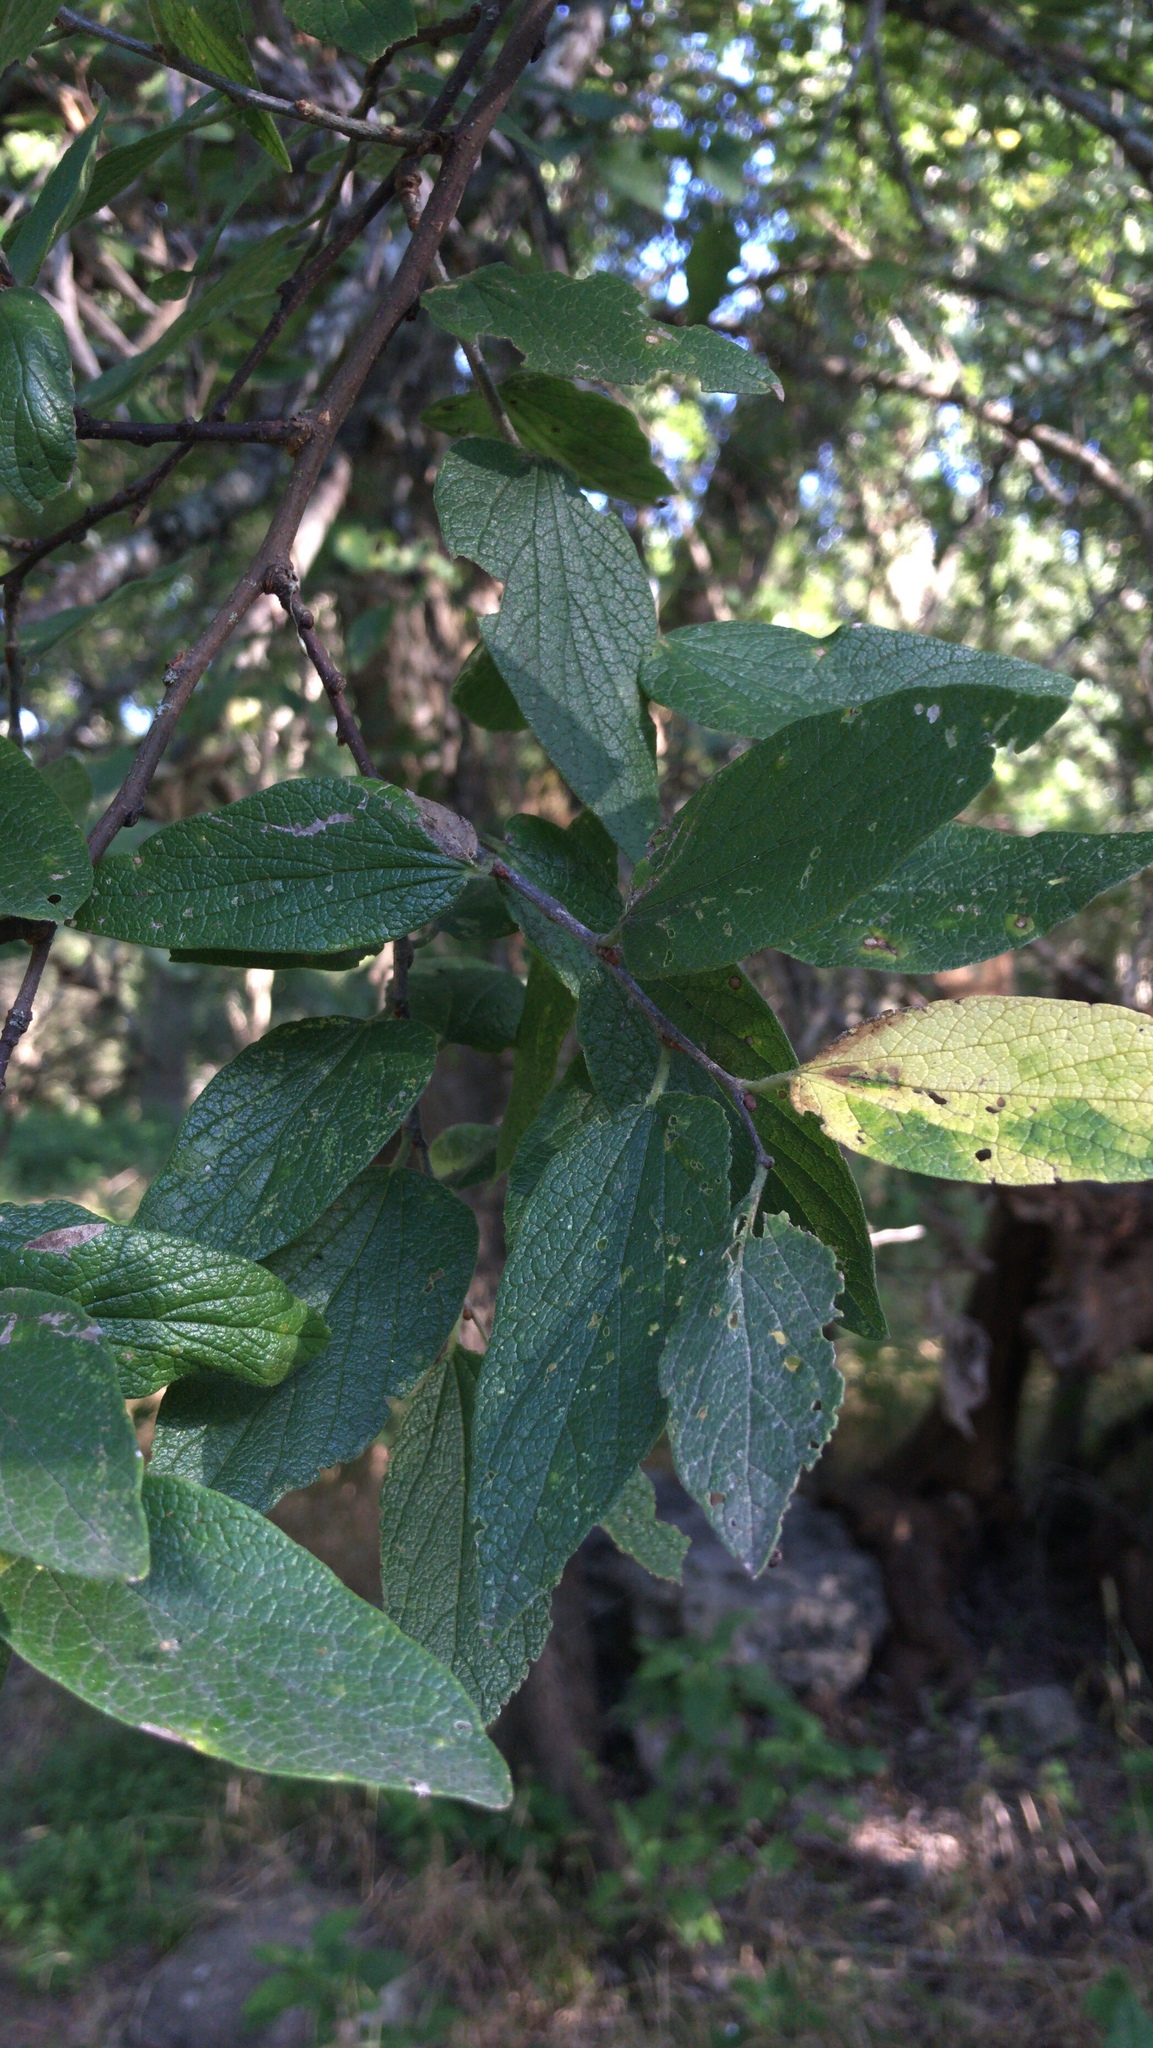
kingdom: Plantae
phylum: Tracheophyta
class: Magnoliopsida
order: Rosales
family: Cannabaceae
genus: Celtis
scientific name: Celtis reticulata
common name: Netleaf hackberry
